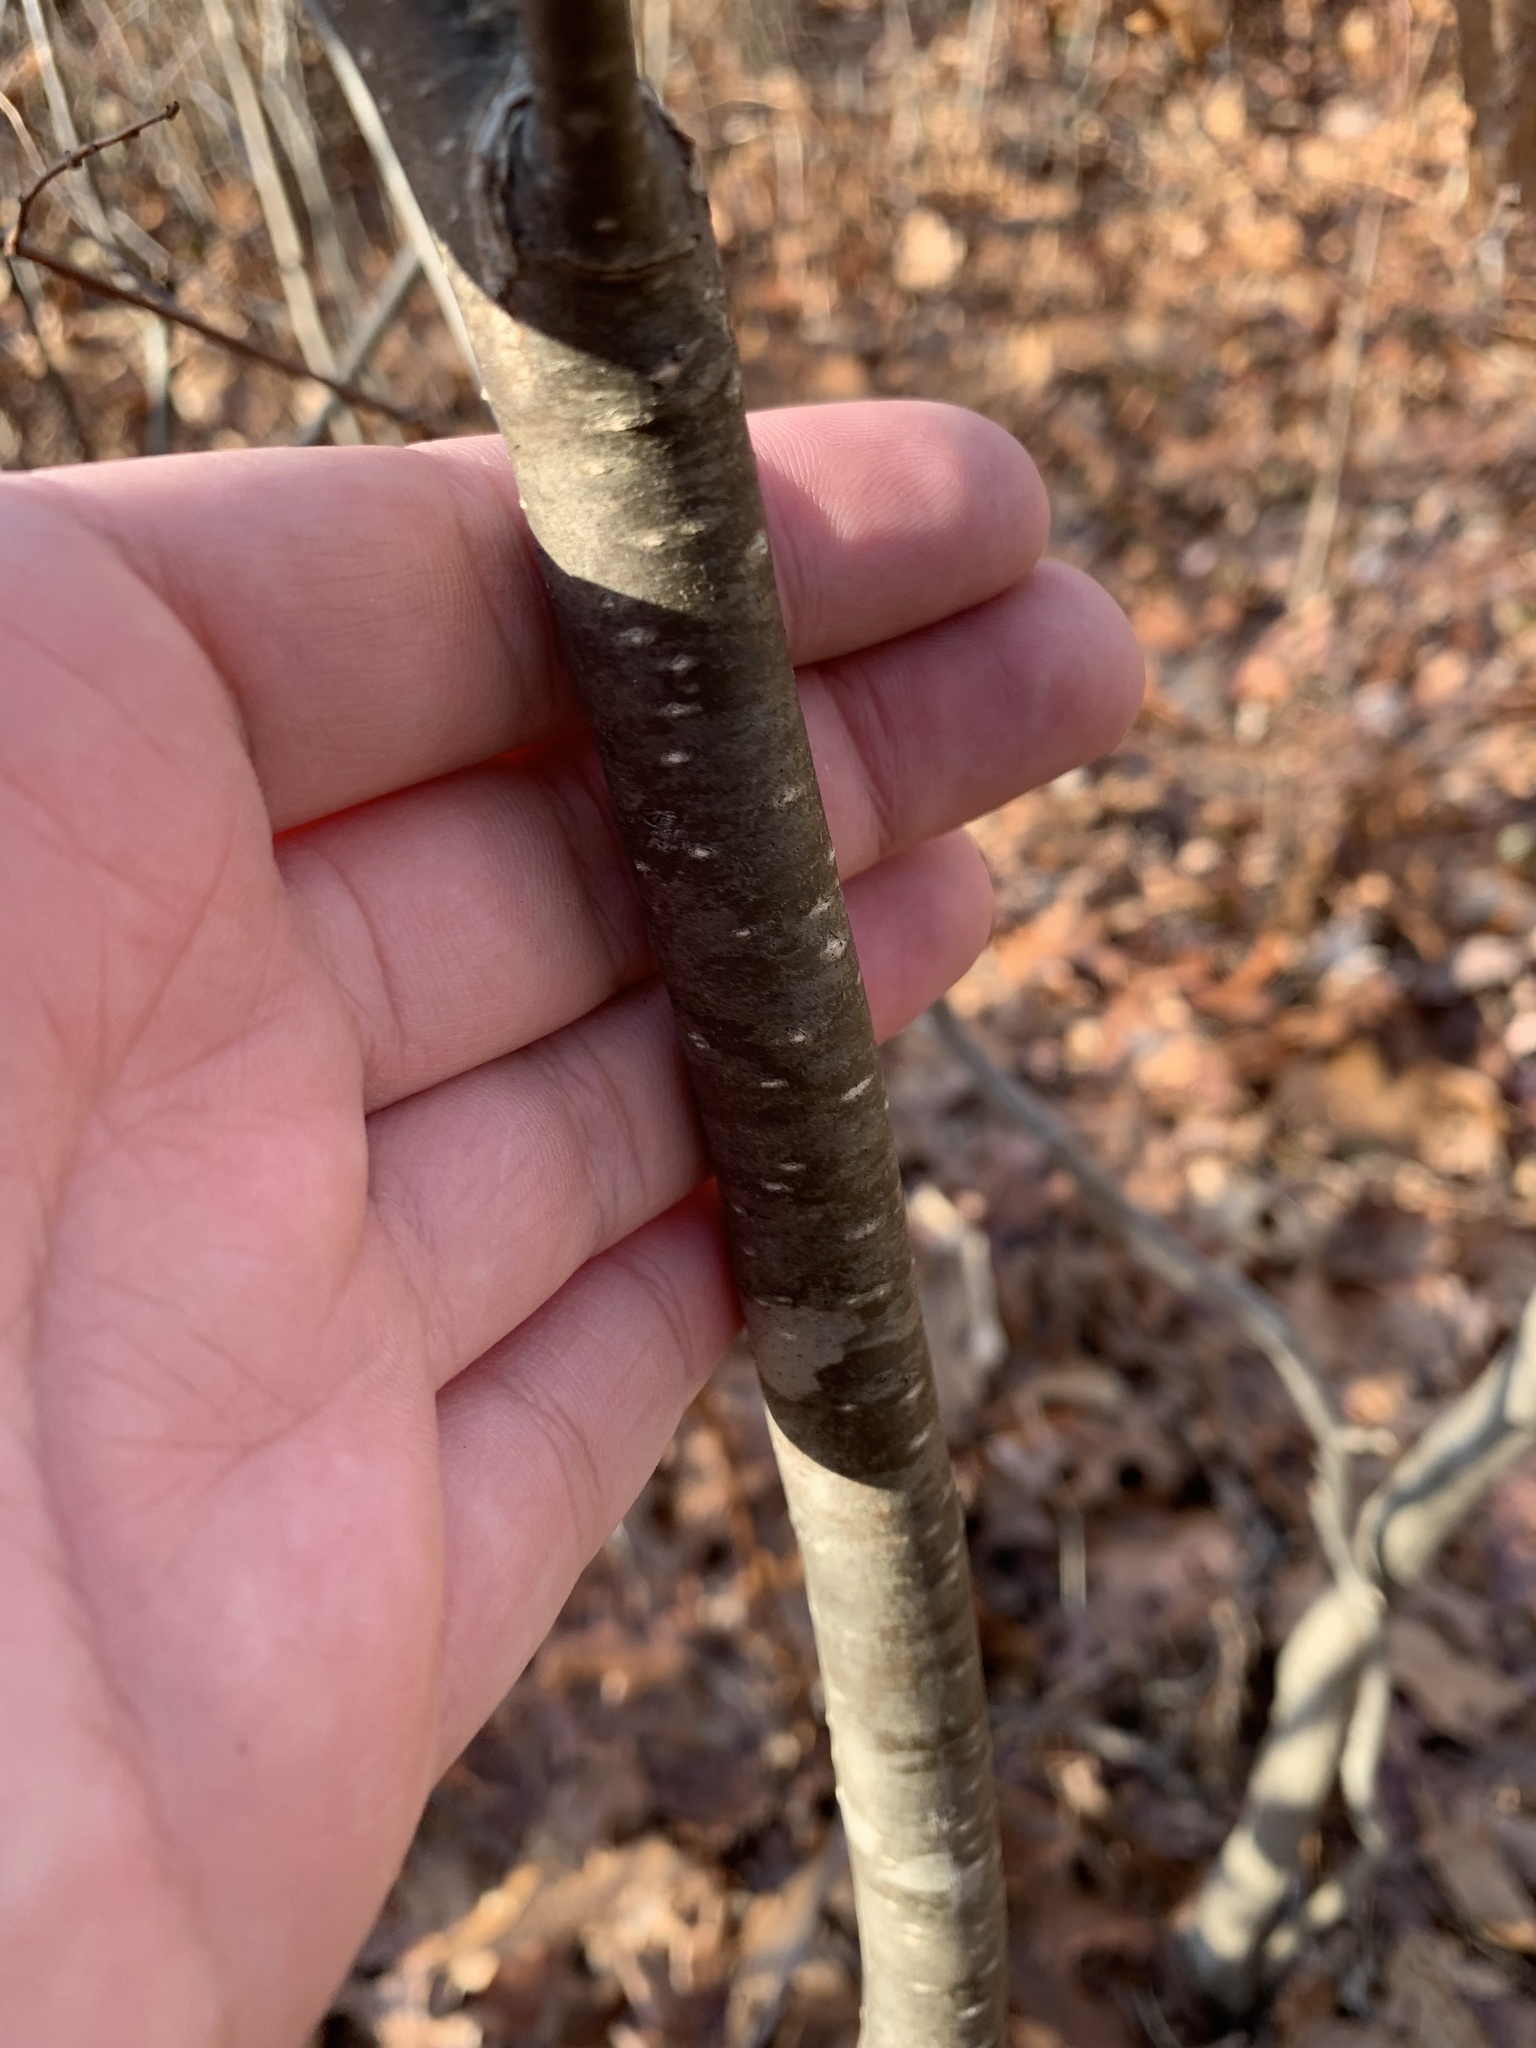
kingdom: Plantae
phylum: Tracheophyta
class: Magnoliopsida
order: Aquifoliales
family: Aquifoliaceae
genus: Ilex
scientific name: Ilex verticillata
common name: Virginia winterberry
